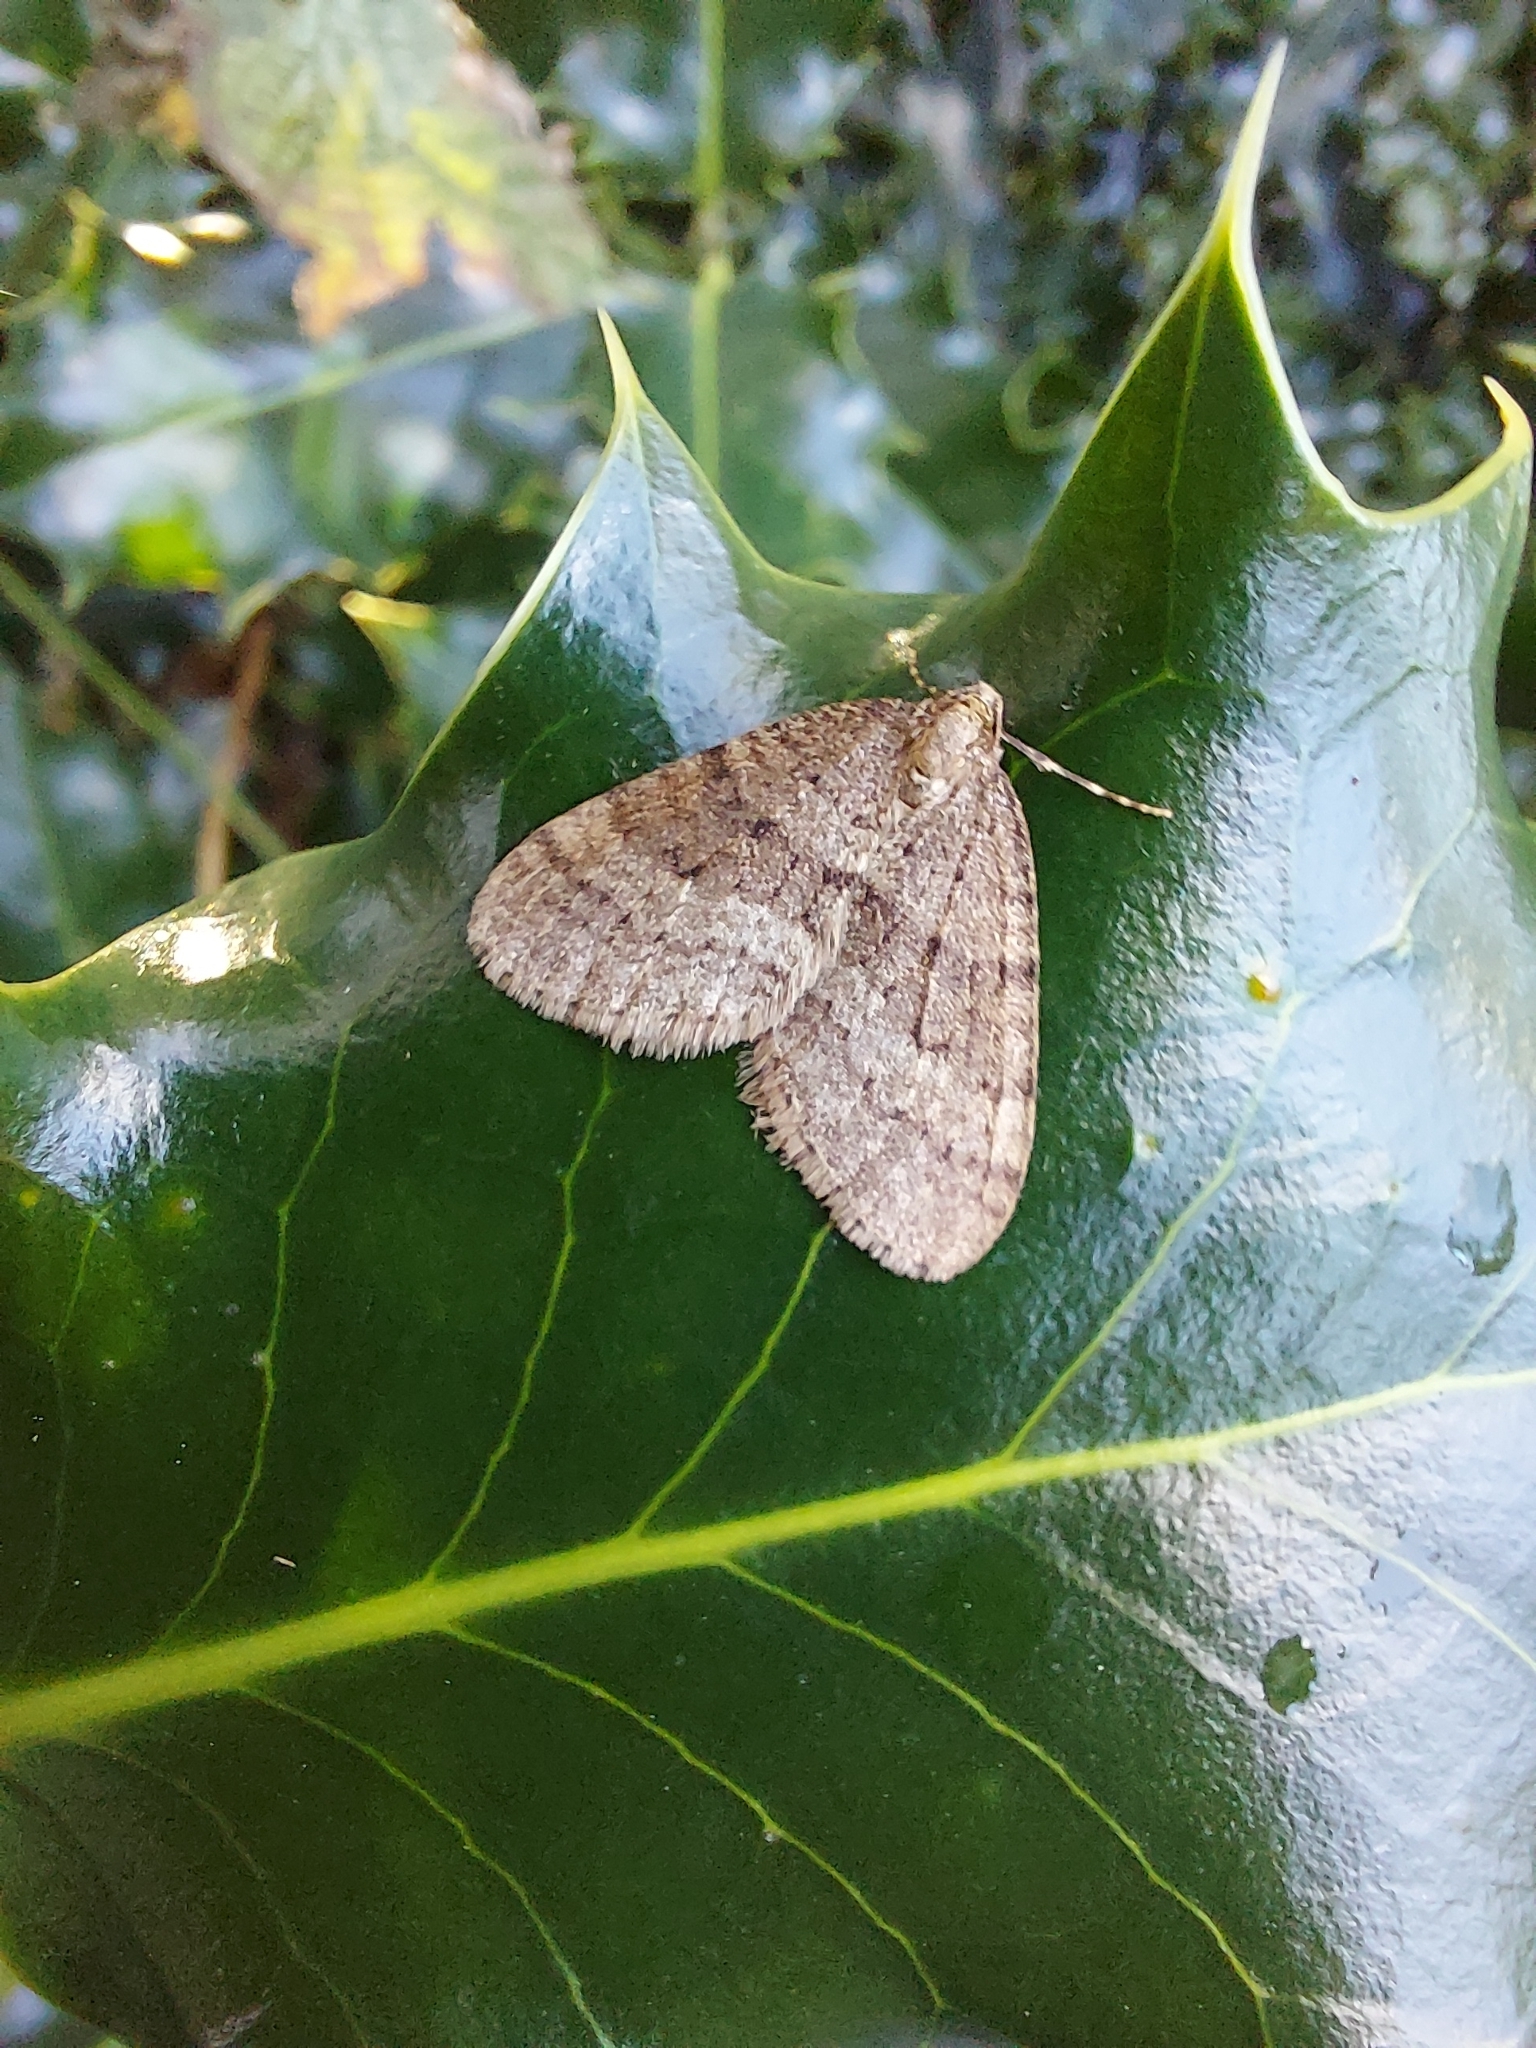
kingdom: Animalia
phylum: Arthropoda
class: Insecta
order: Lepidoptera
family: Geometridae
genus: Operophtera
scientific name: Operophtera brumata
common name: Winter moth
